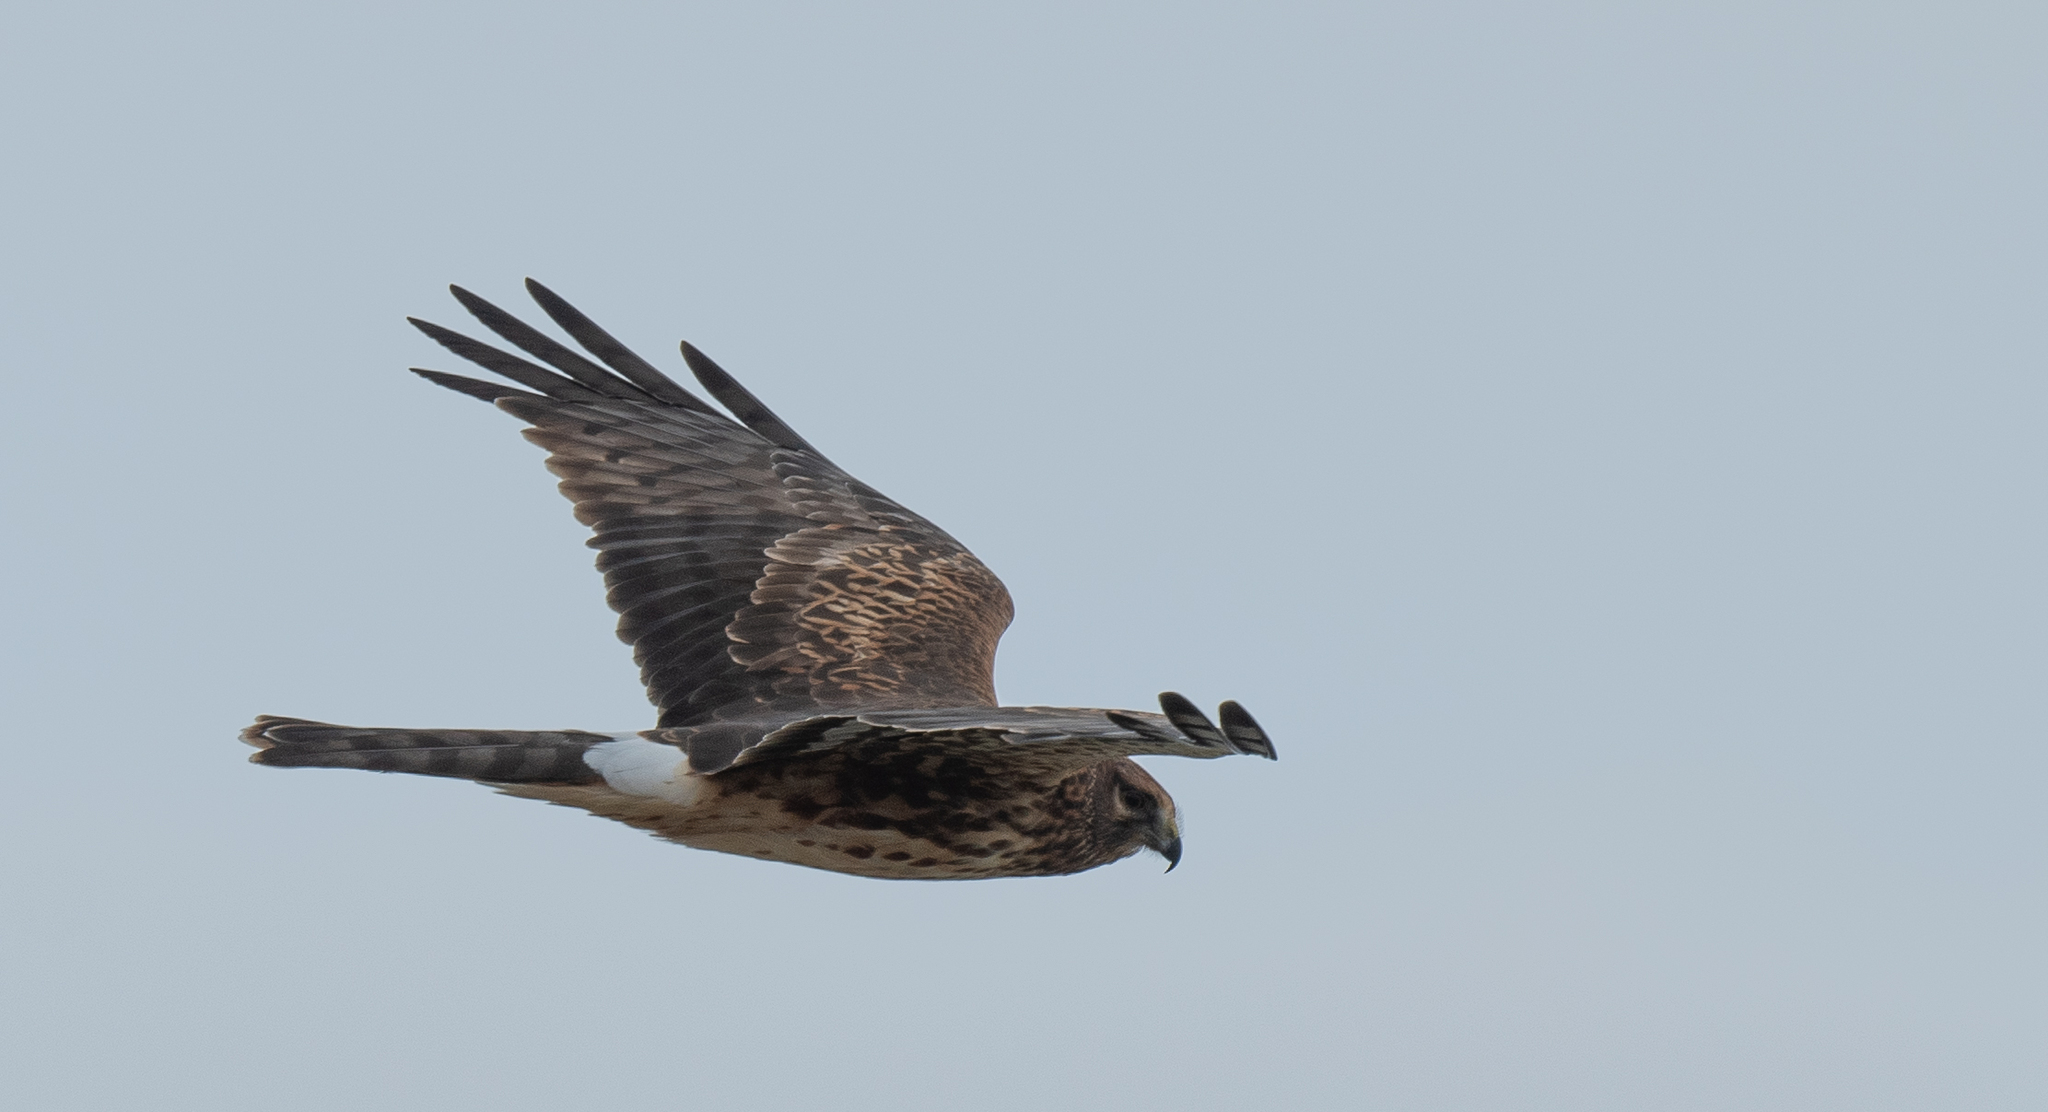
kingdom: Animalia
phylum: Chordata
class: Aves
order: Accipitriformes
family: Accipitridae
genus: Circus
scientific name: Circus cyaneus
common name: Hen harrier
